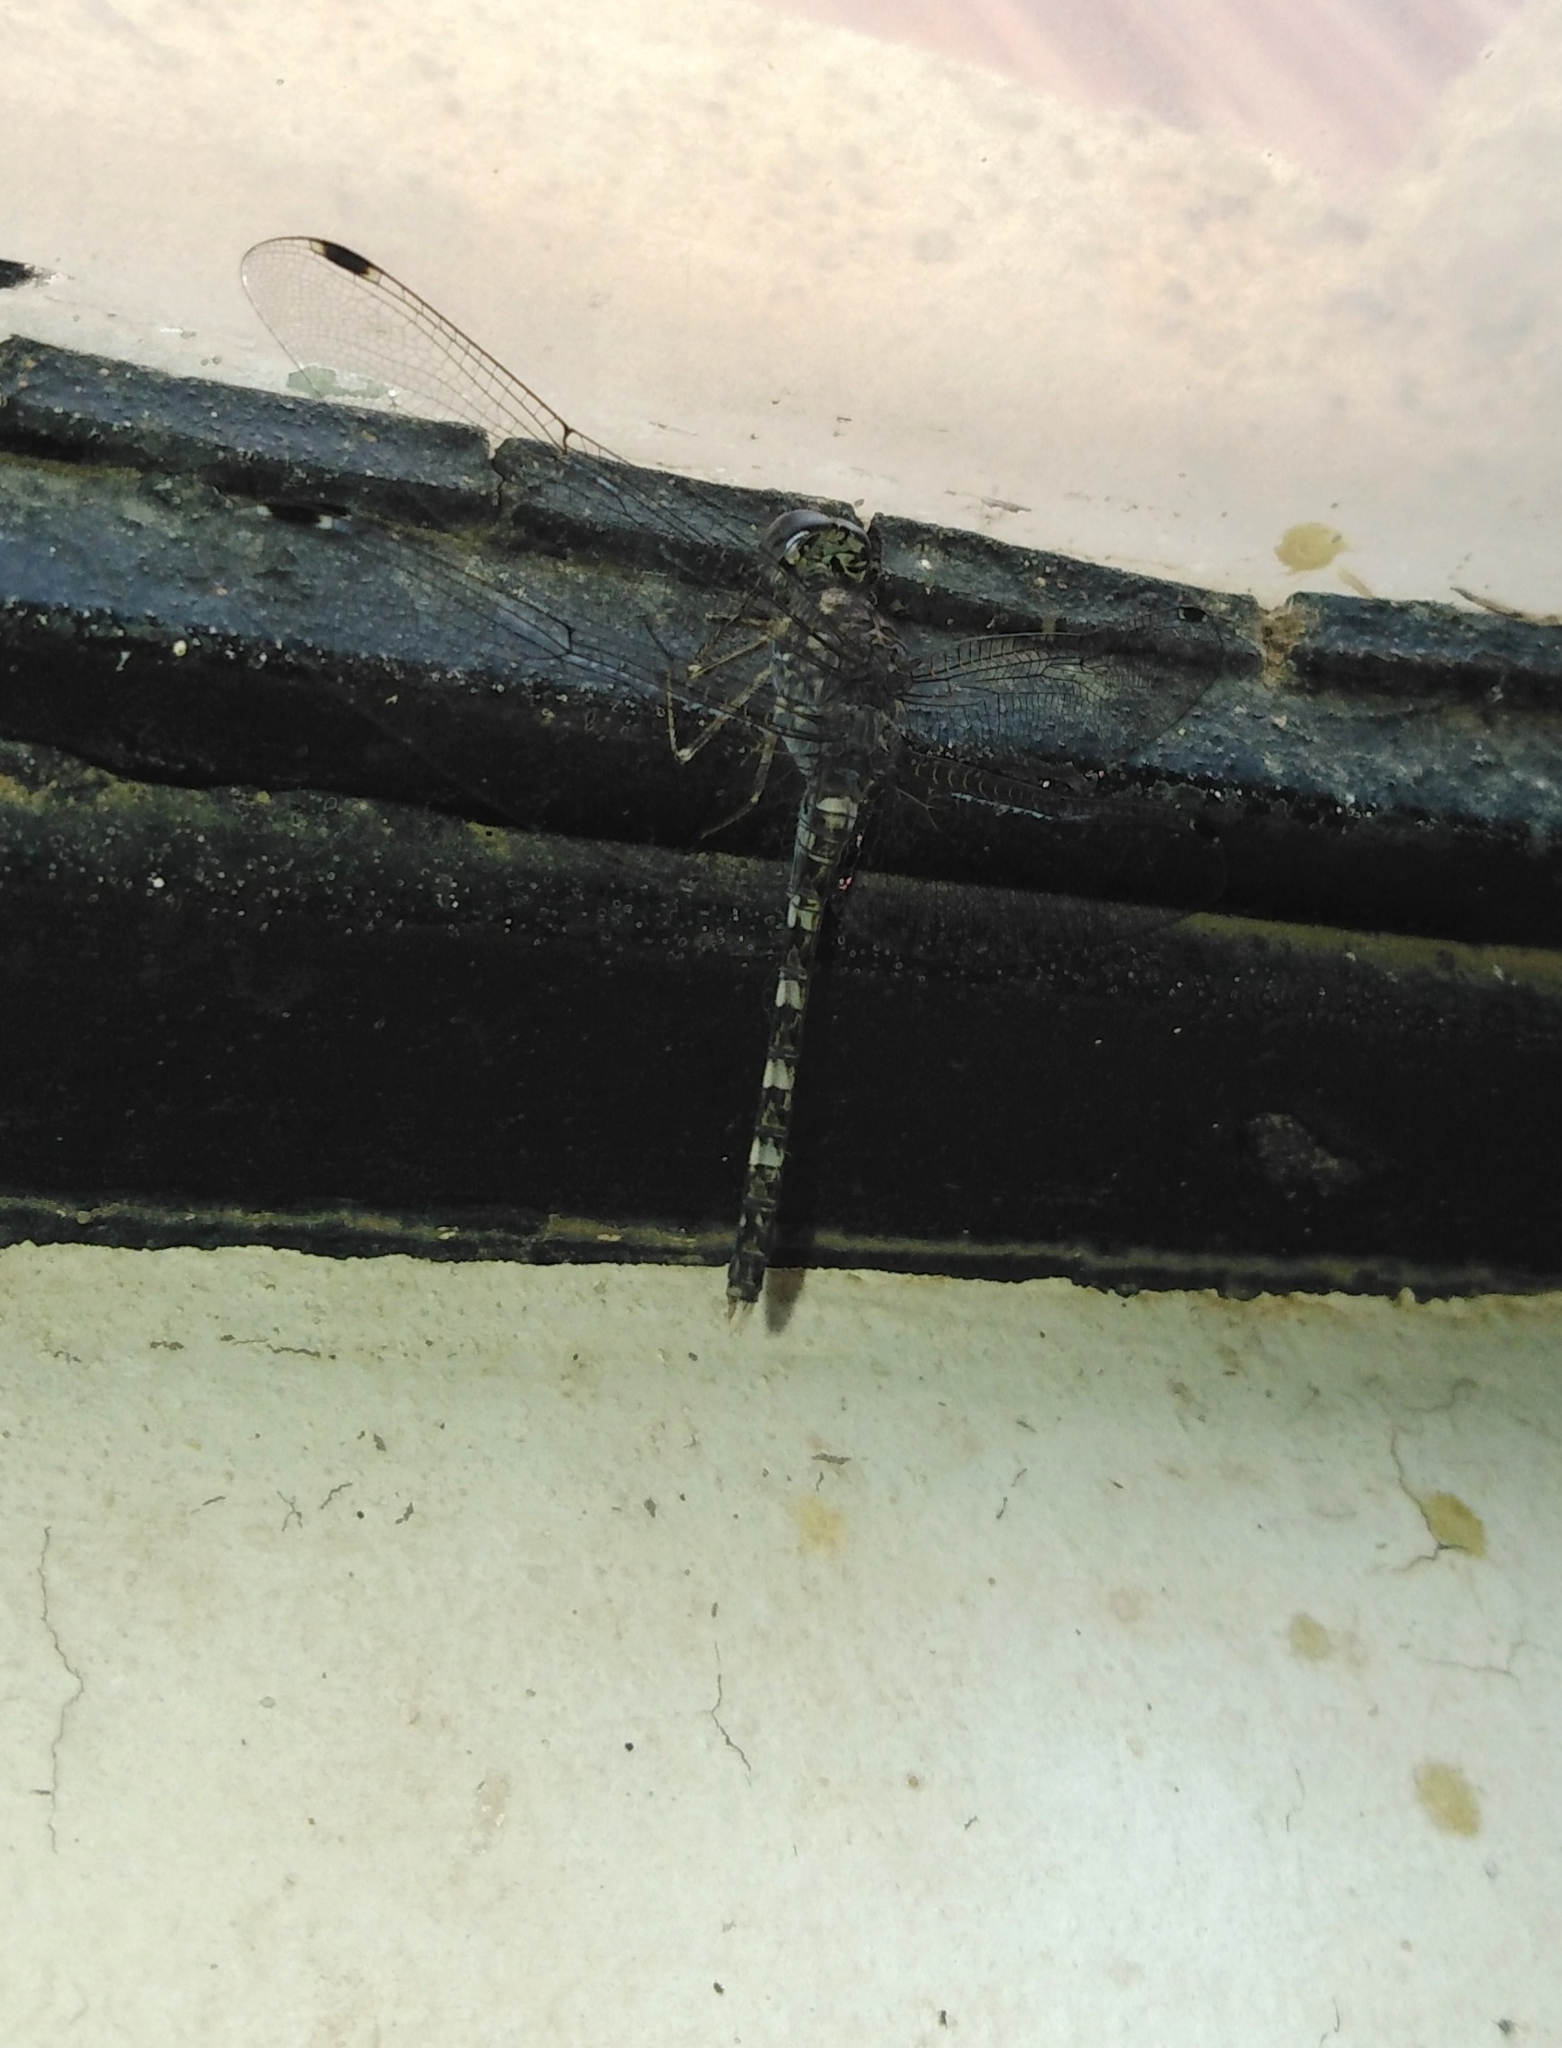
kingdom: Animalia
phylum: Arthropoda
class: Insecta
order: Odonata
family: Libellulidae
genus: Bradinopyga
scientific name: Bradinopyga geminata
